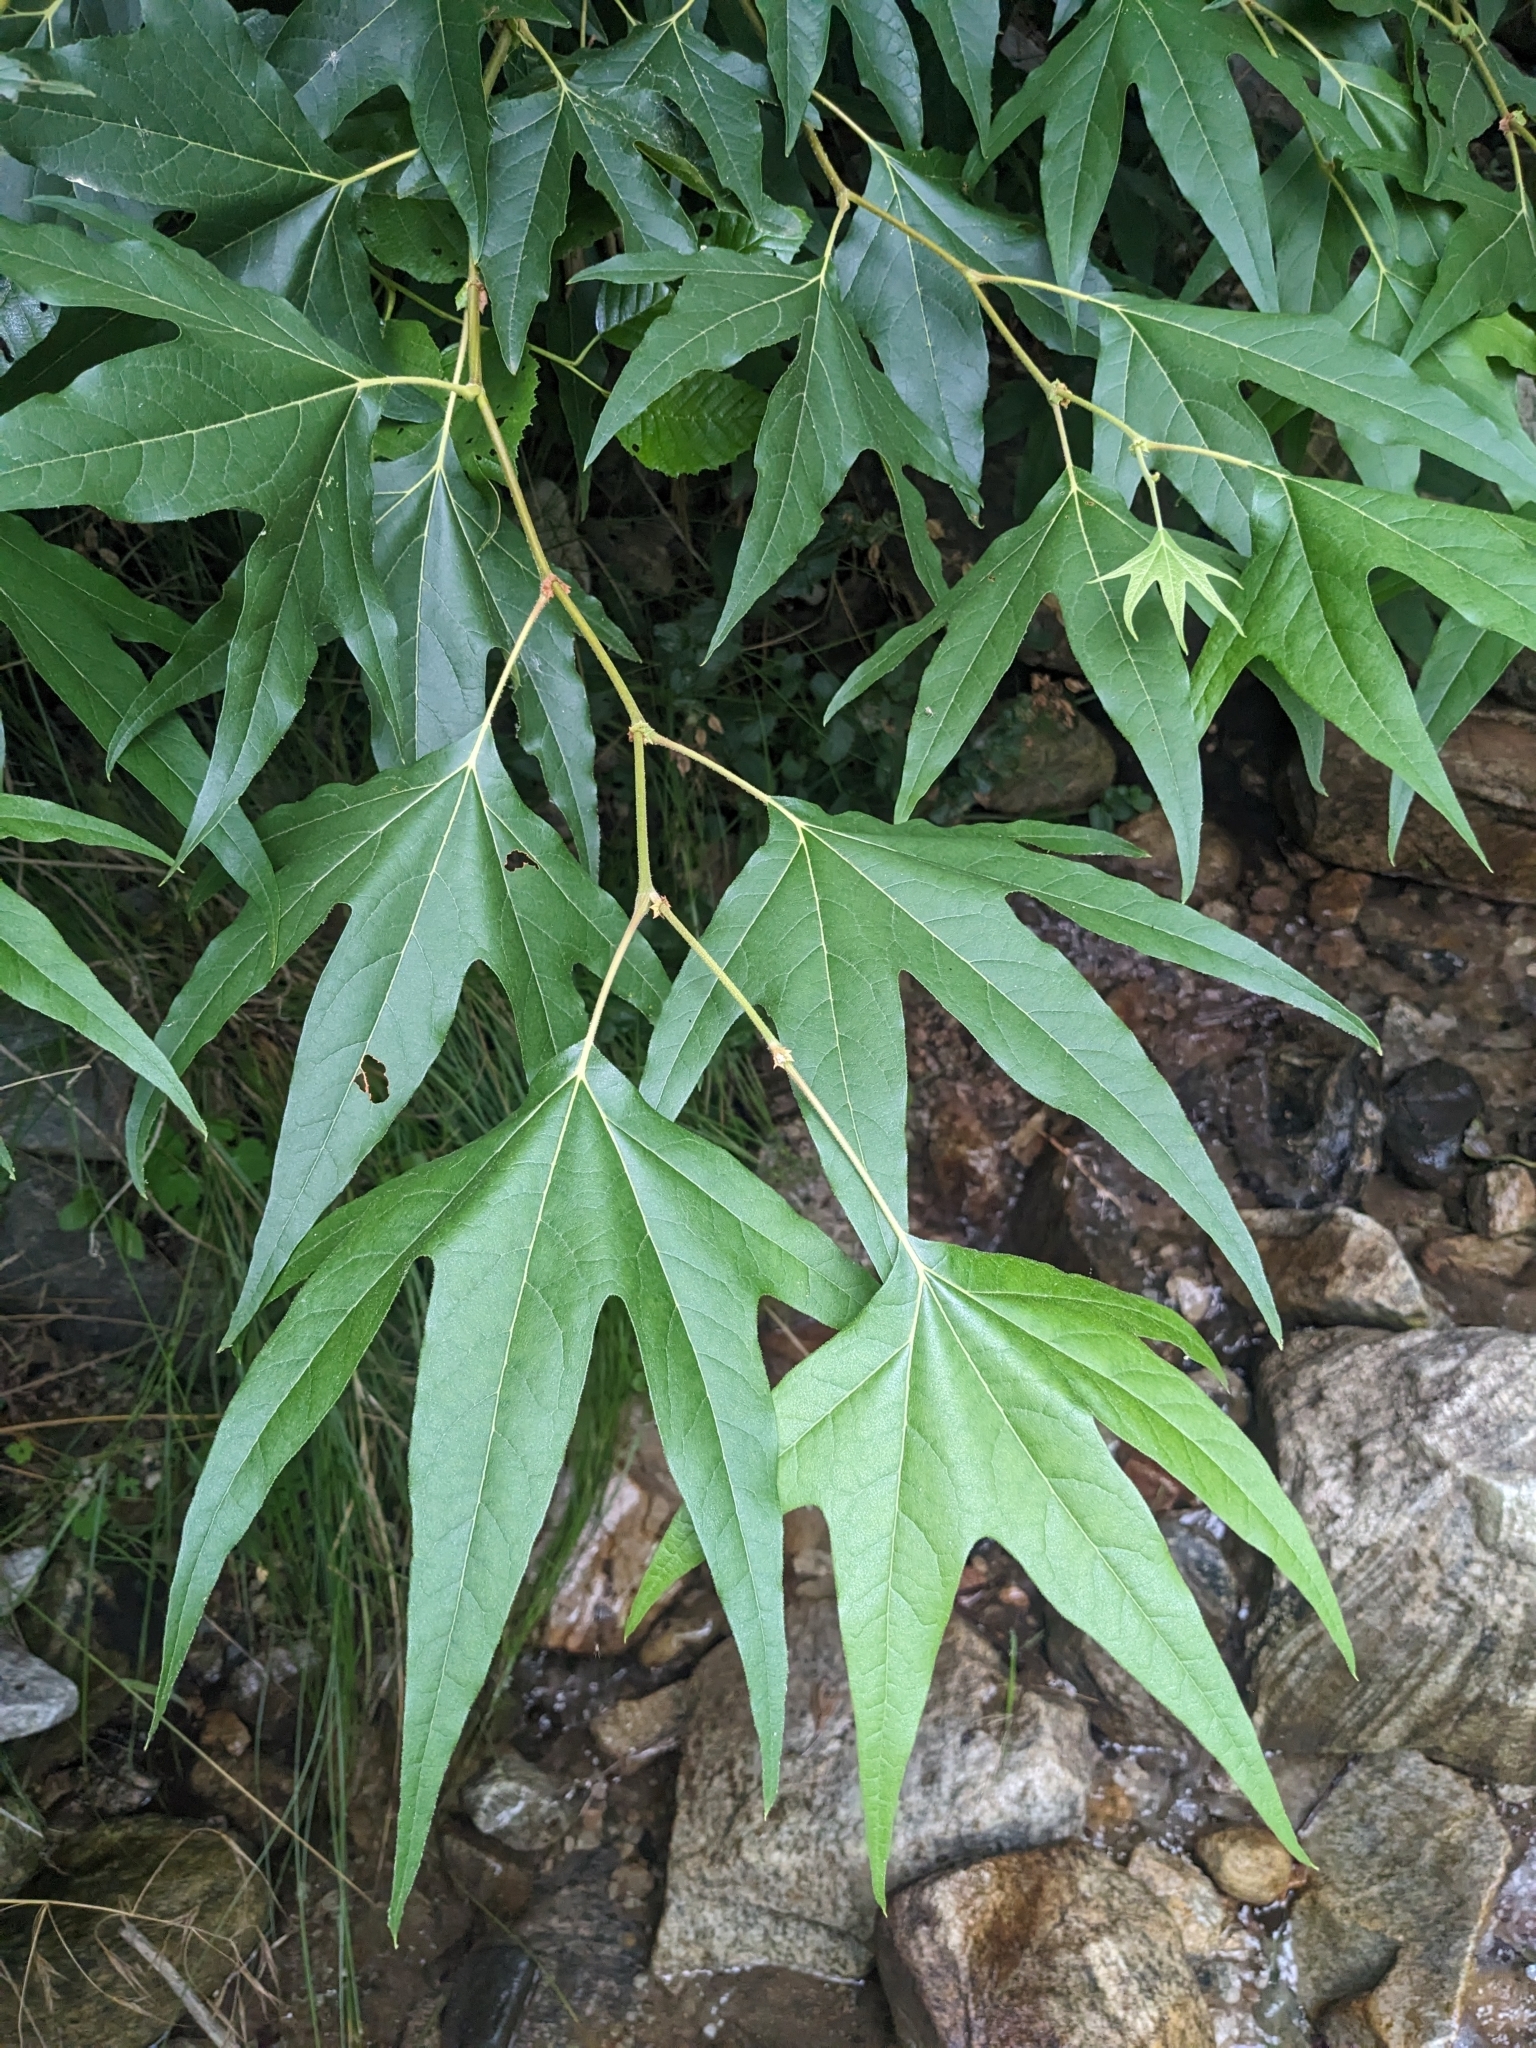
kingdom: Plantae
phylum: Tracheophyta
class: Magnoliopsida
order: Proteales
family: Platanaceae
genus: Platanus
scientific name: Platanus wrightii
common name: Arizona sycamore
